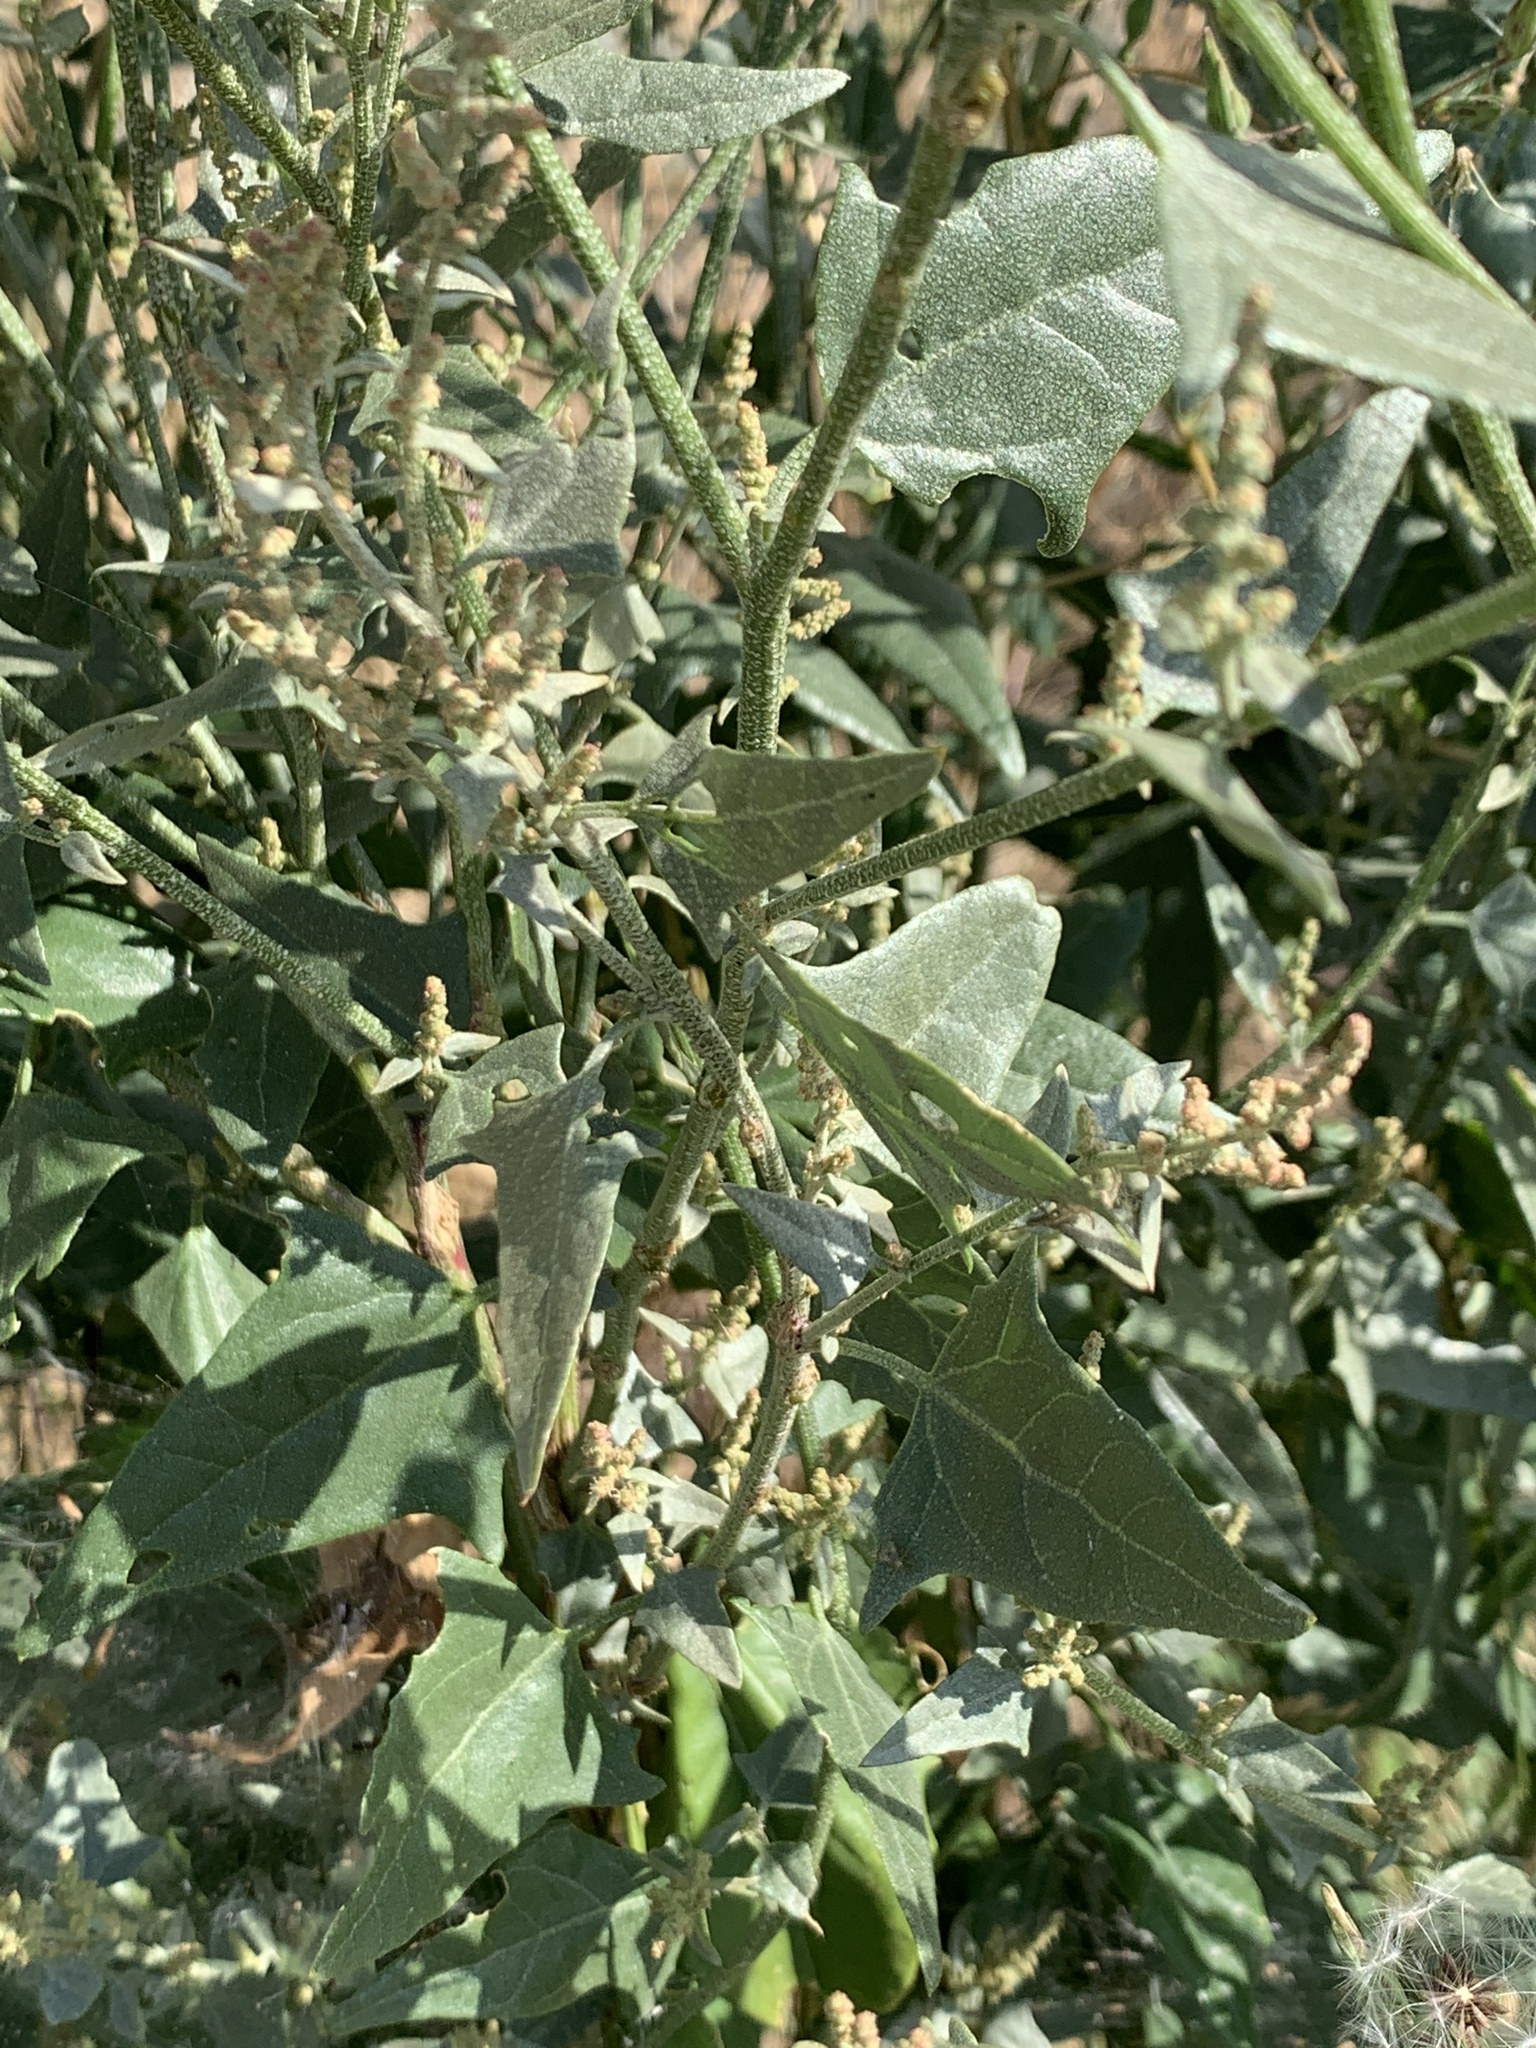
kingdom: Plantae
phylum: Tracheophyta
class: Magnoliopsida
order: Caryophyllales
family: Amaranthaceae
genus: Chenopodium
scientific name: Chenopodium album
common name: Fat-hen
